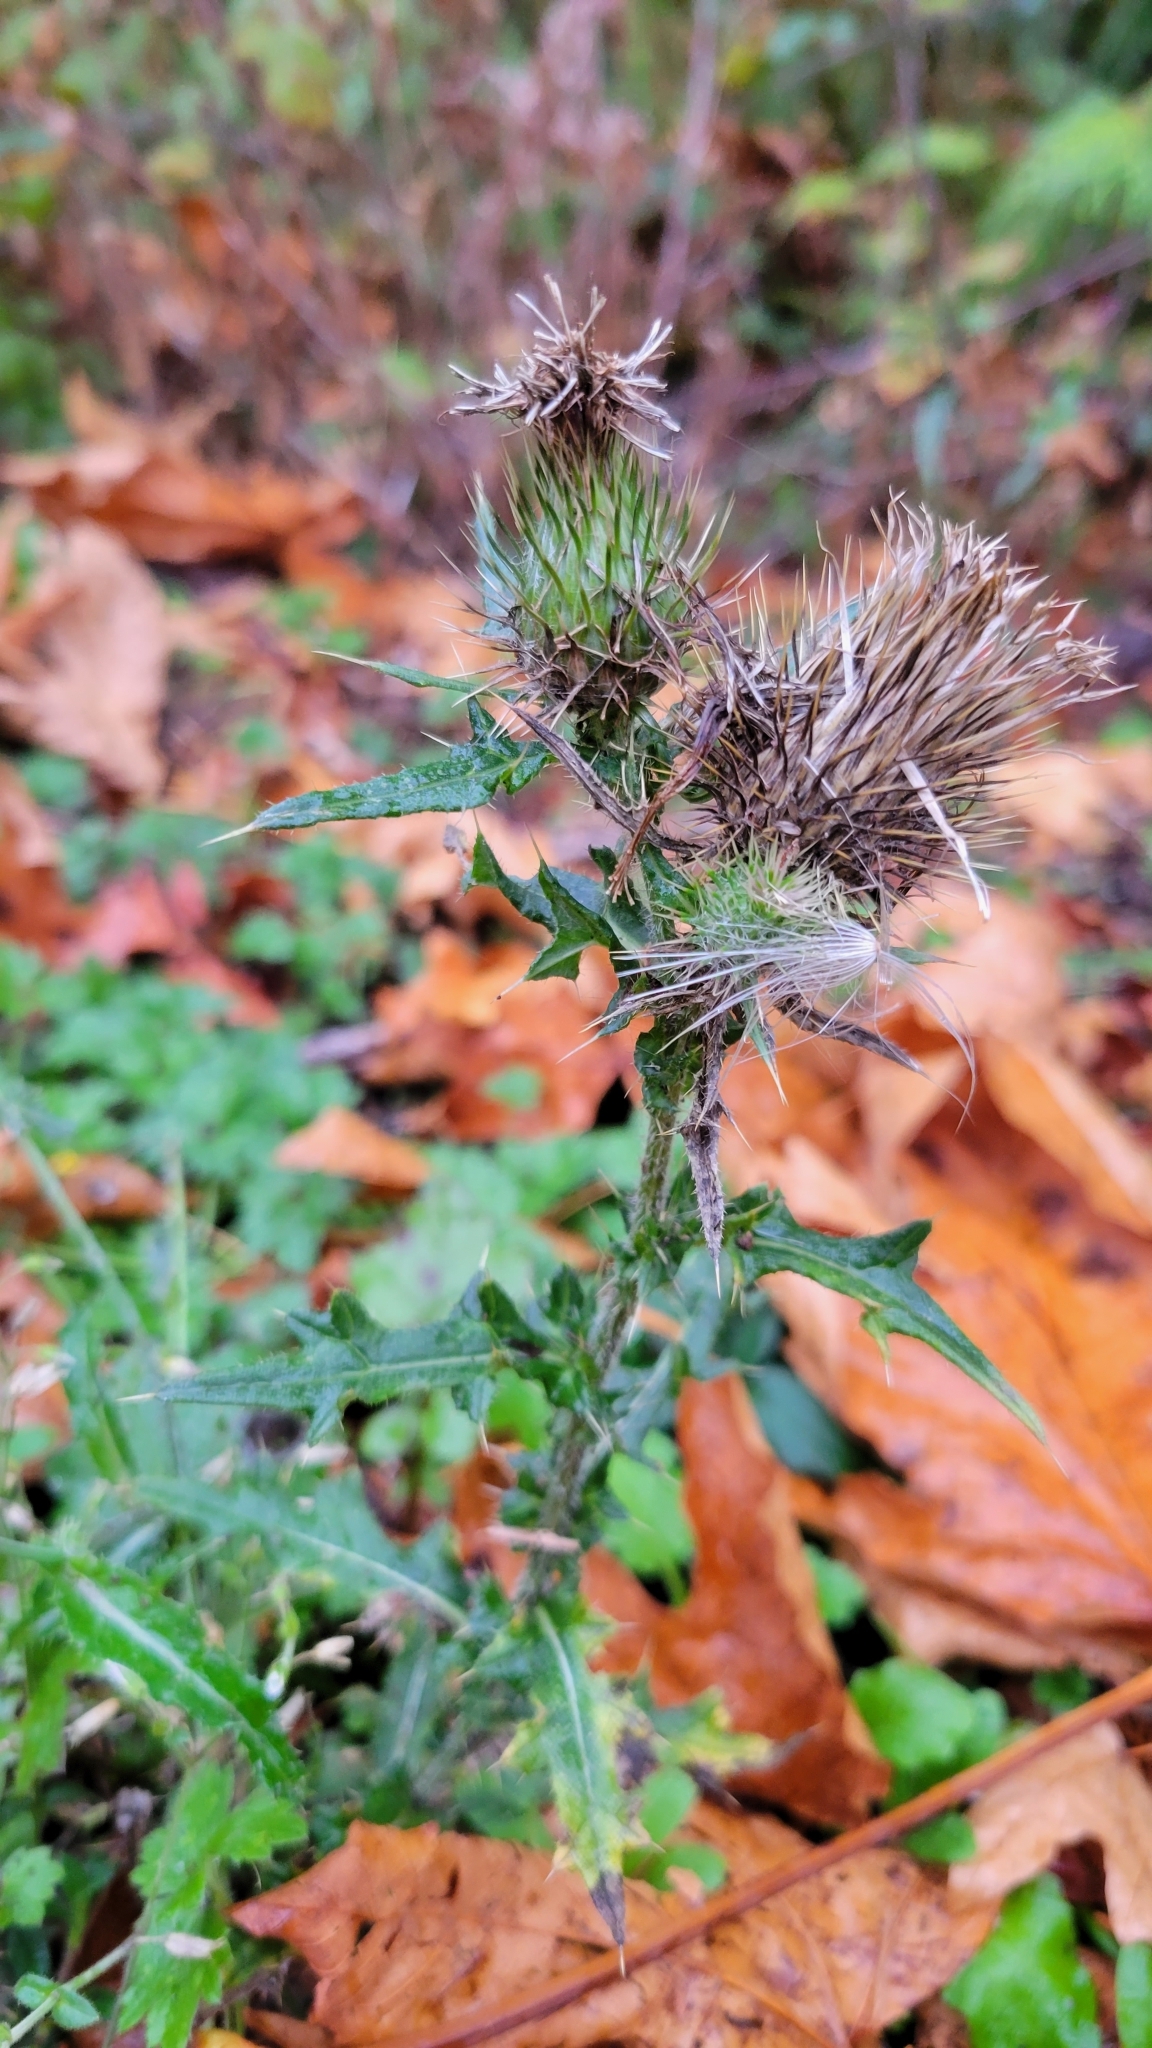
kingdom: Plantae
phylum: Tracheophyta
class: Magnoliopsida
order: Asterales
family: Asteraceae
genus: Cirsium
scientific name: Cirsium vulgare
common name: Bull thistle
